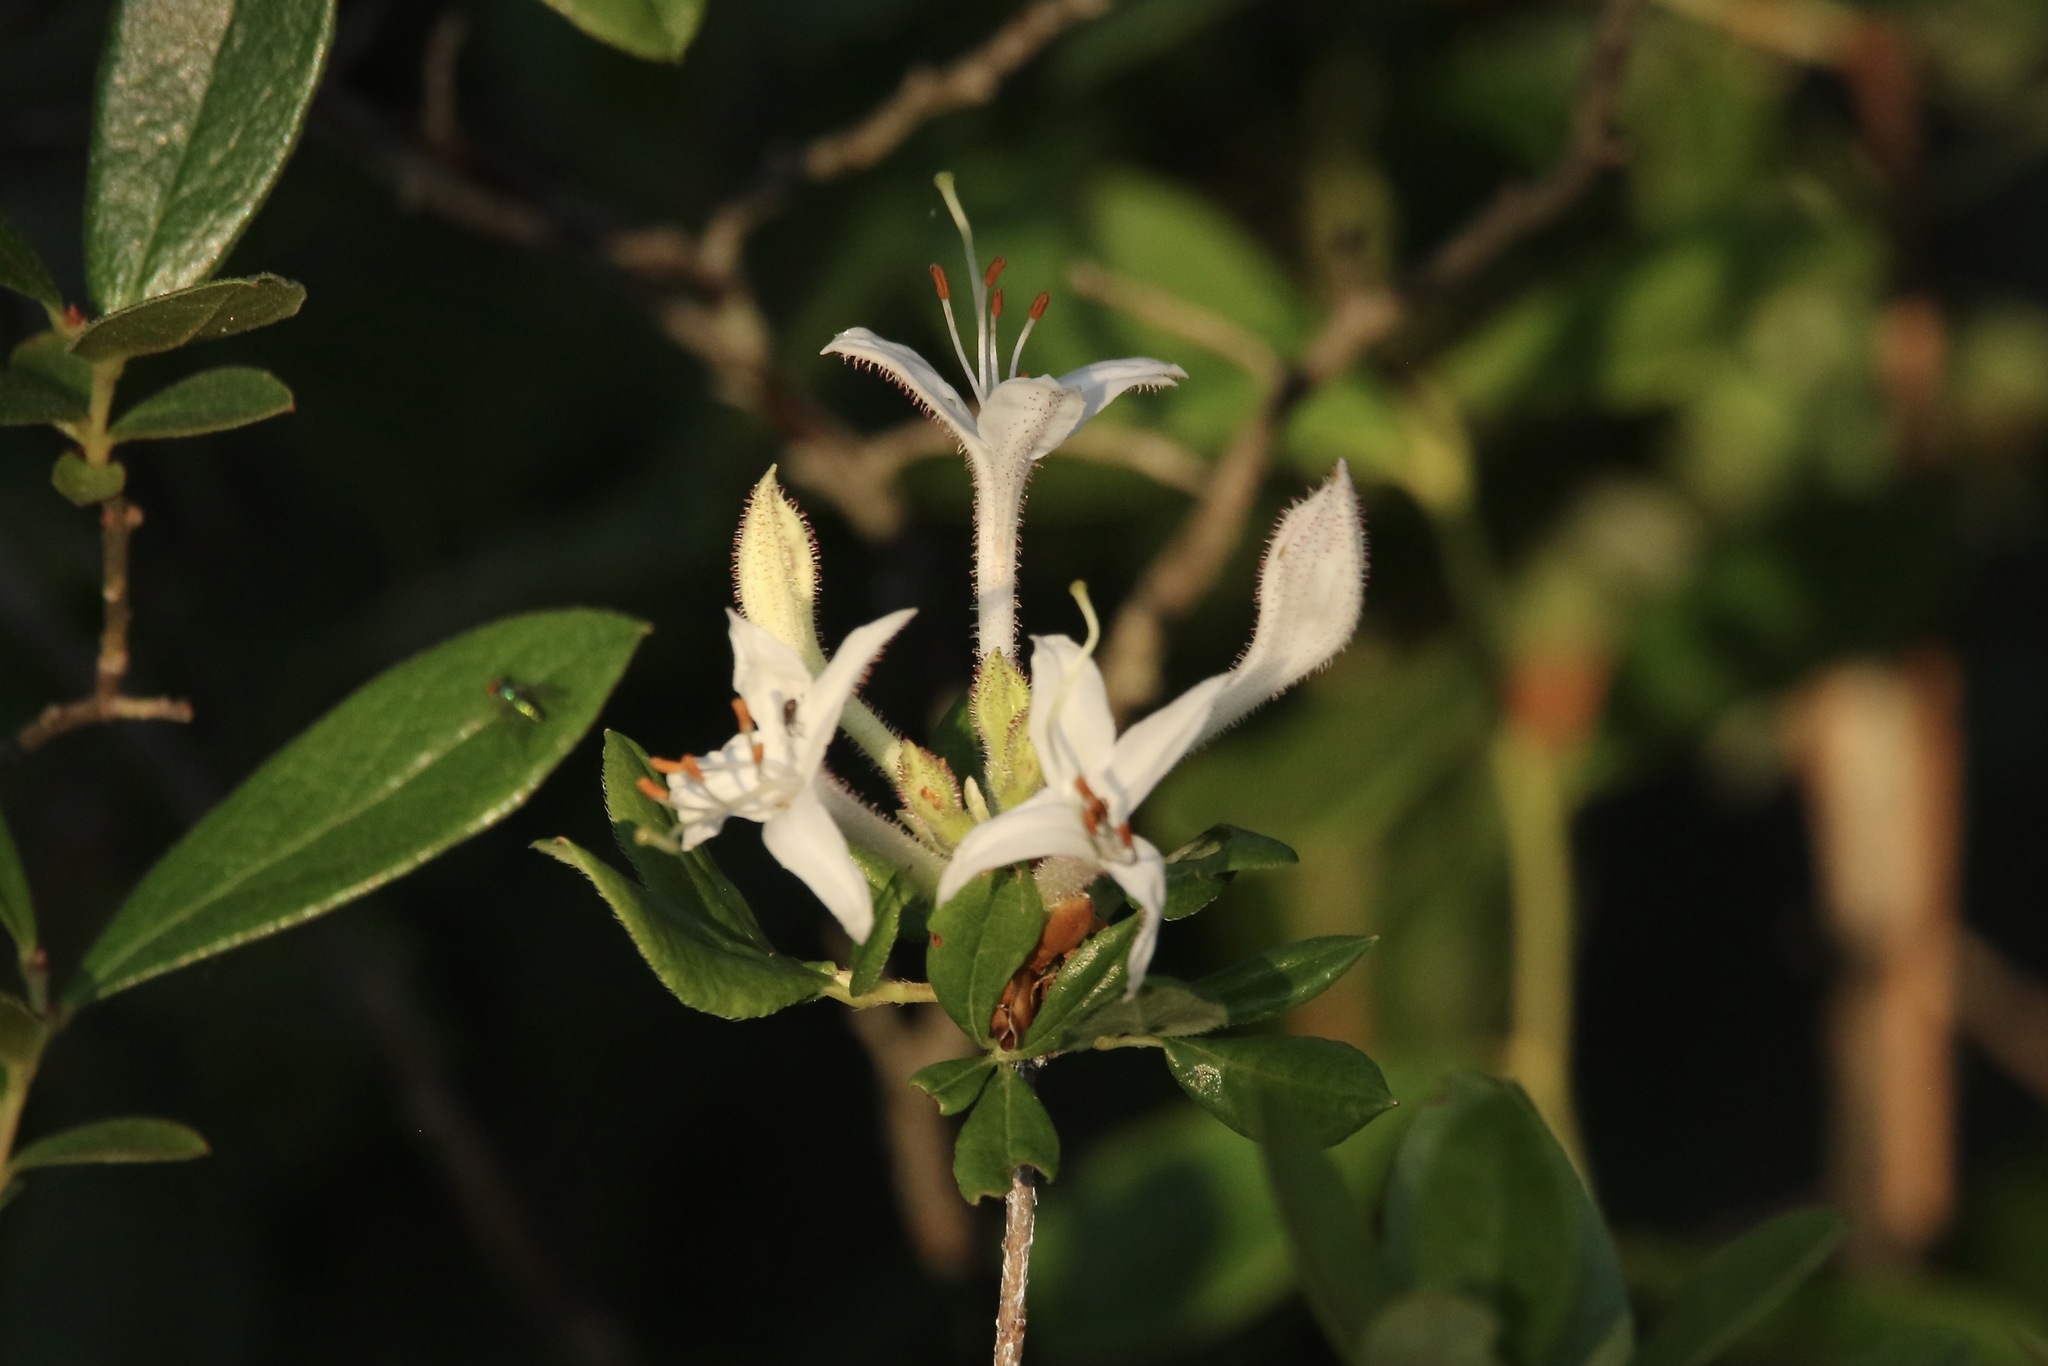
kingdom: Plantae
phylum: Tracheophyta
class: Magnoliopsida
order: Ericales
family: Ericaceae
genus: Rhododendron
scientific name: Rhododendron viscosum
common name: Clammy azalea
